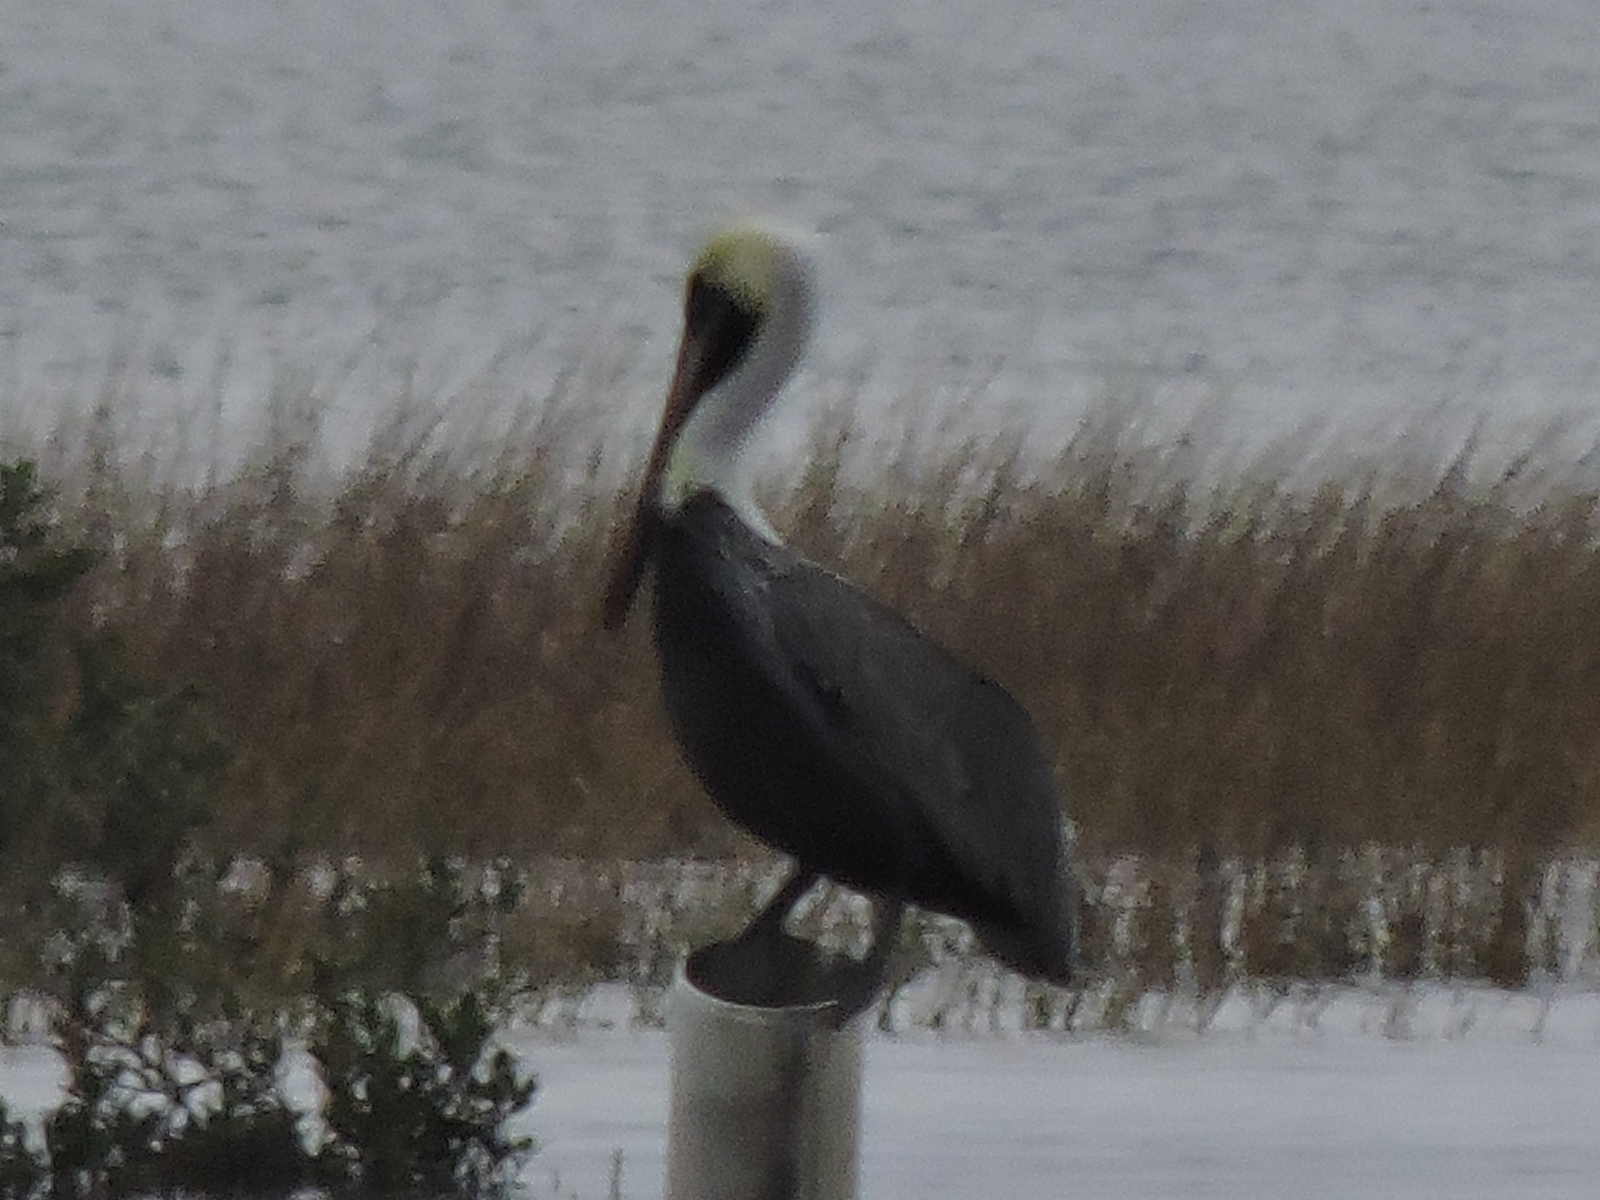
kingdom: Animalia
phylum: Chordata
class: Aves
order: Pelecaniformes
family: Pelecanidae
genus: Pelecanus
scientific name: Pelecanus occidentalis
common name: Brown pelican
